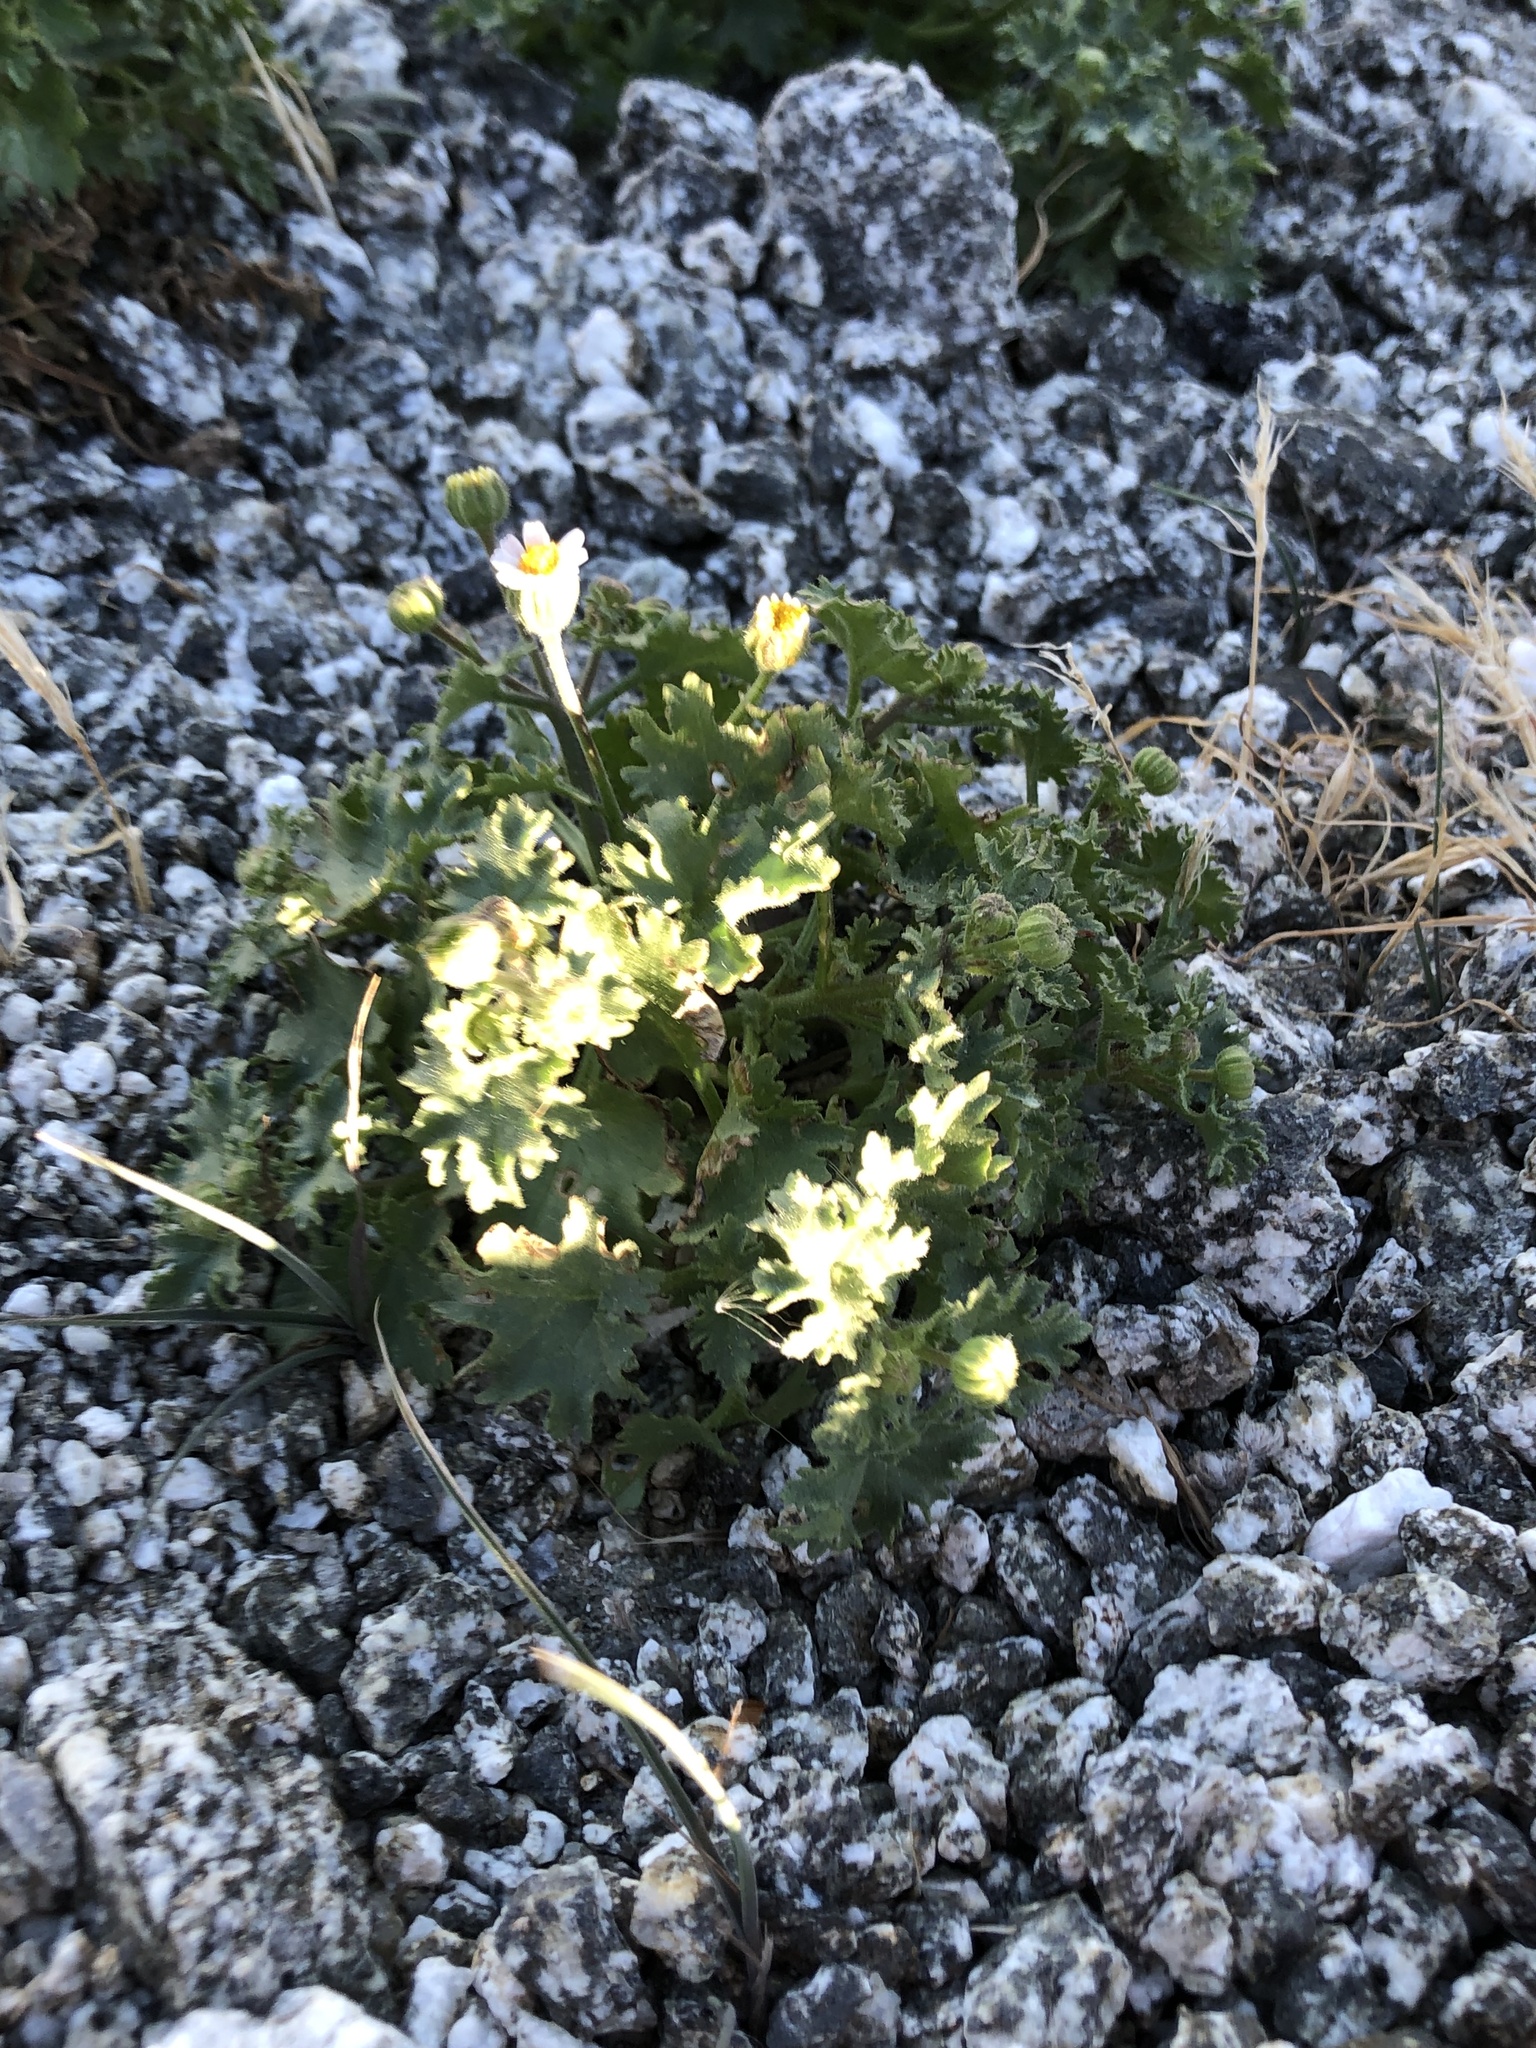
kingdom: Plantae
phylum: Tracheophyta
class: Magnoliopsida
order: Asterales
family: Asteraceae
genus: Laphamia
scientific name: Laphamia emoryi
